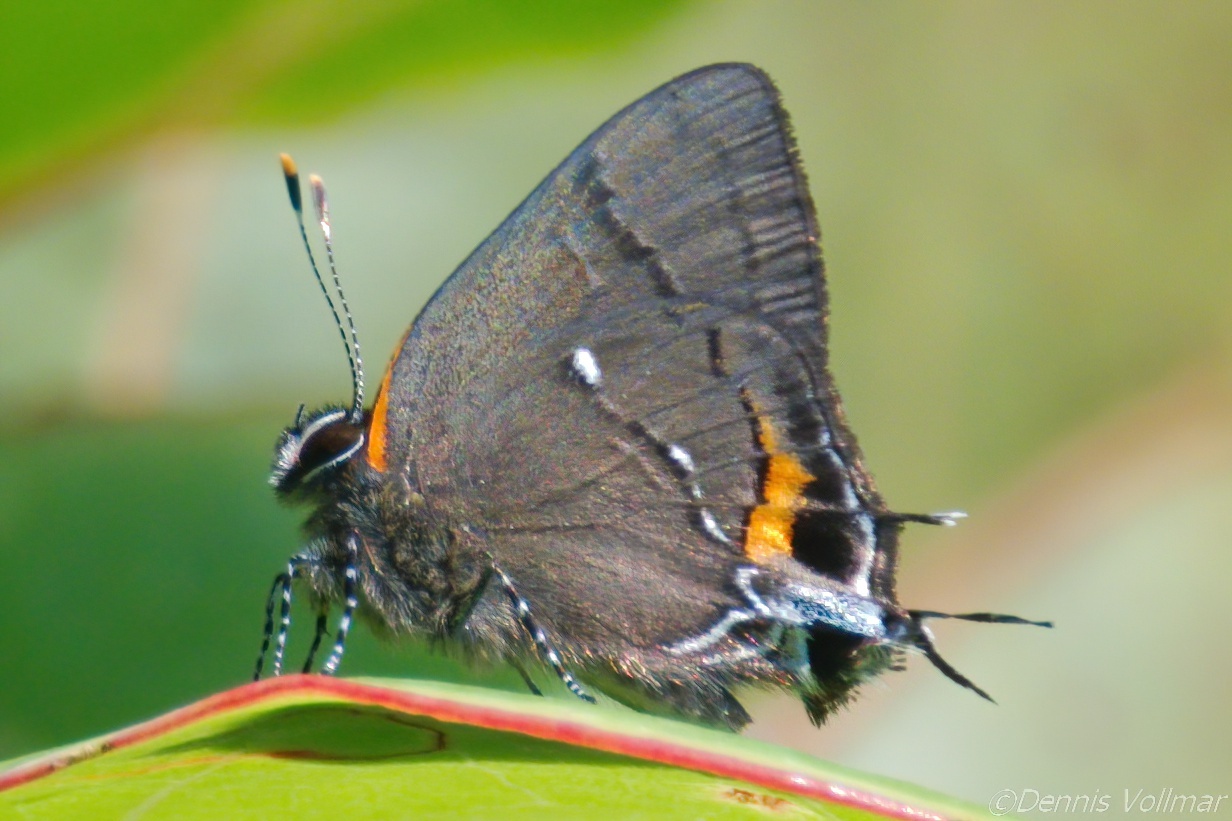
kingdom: Animalia
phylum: Arthropoda
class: Insecta
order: Lepidoptera
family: Lycaenidae
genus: Thecla
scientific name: Thecla angelia
